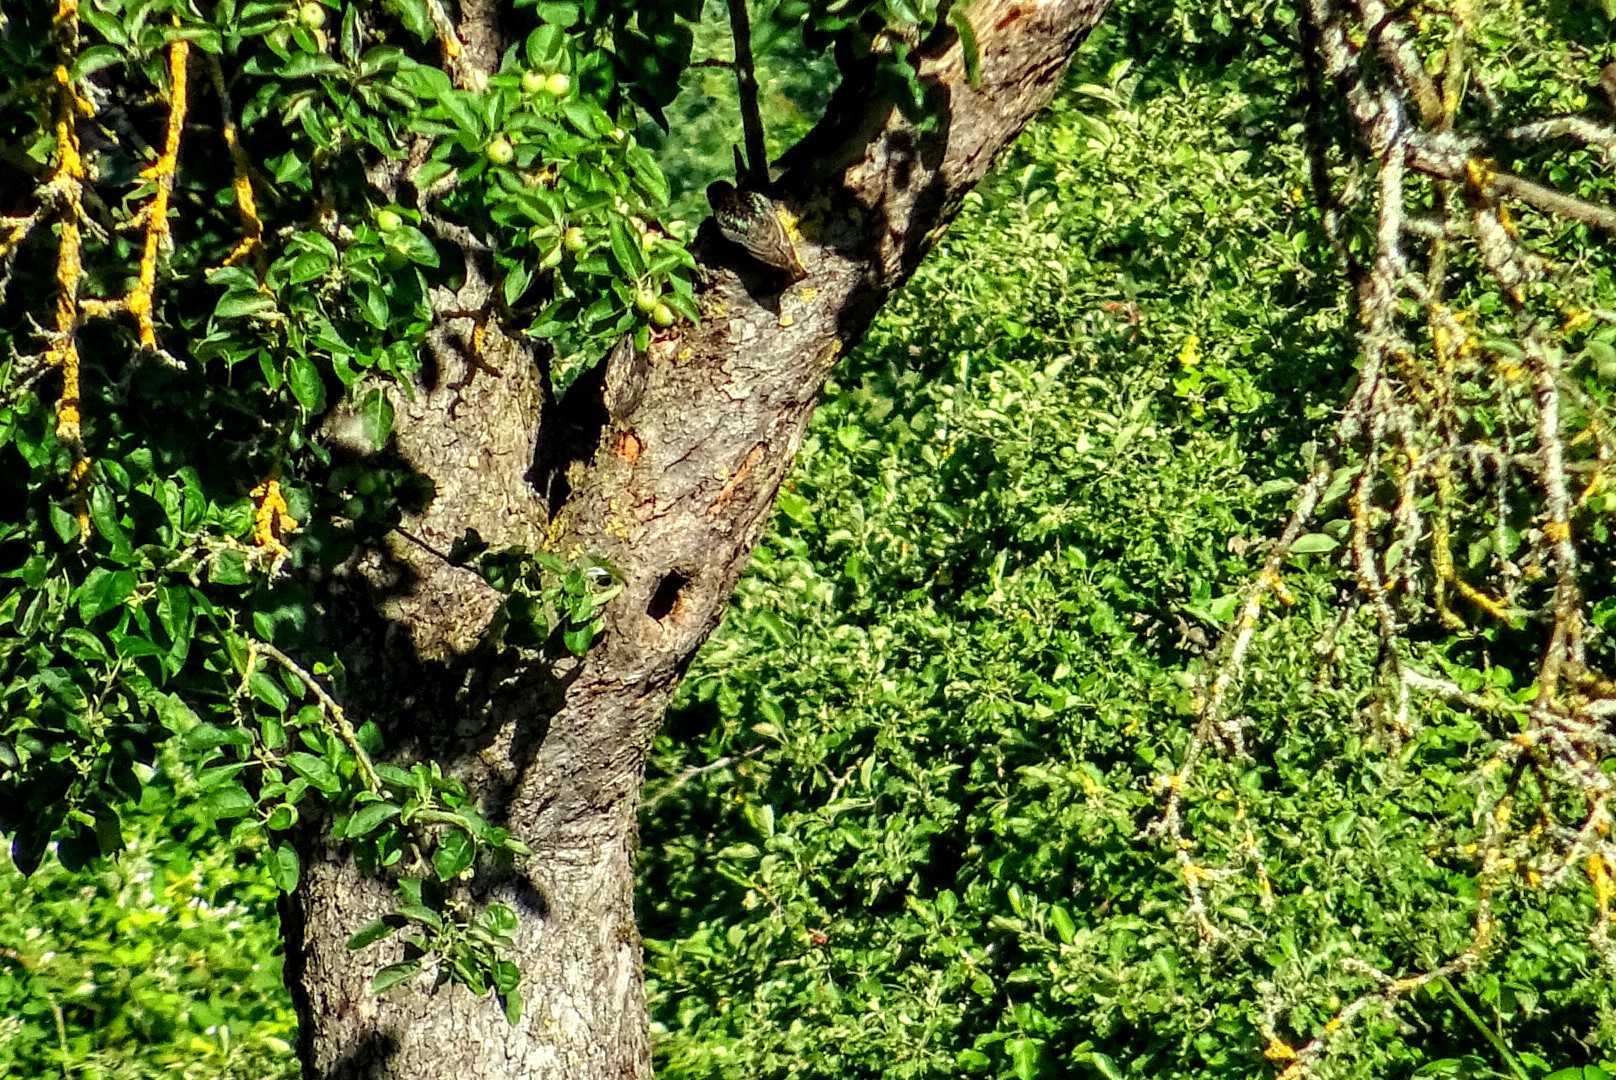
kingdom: Animalia
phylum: Chordata
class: Aves
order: Passeriformes
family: Sturnidae
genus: Sturnus
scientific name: Sturnus vulgaris
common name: Common starling
